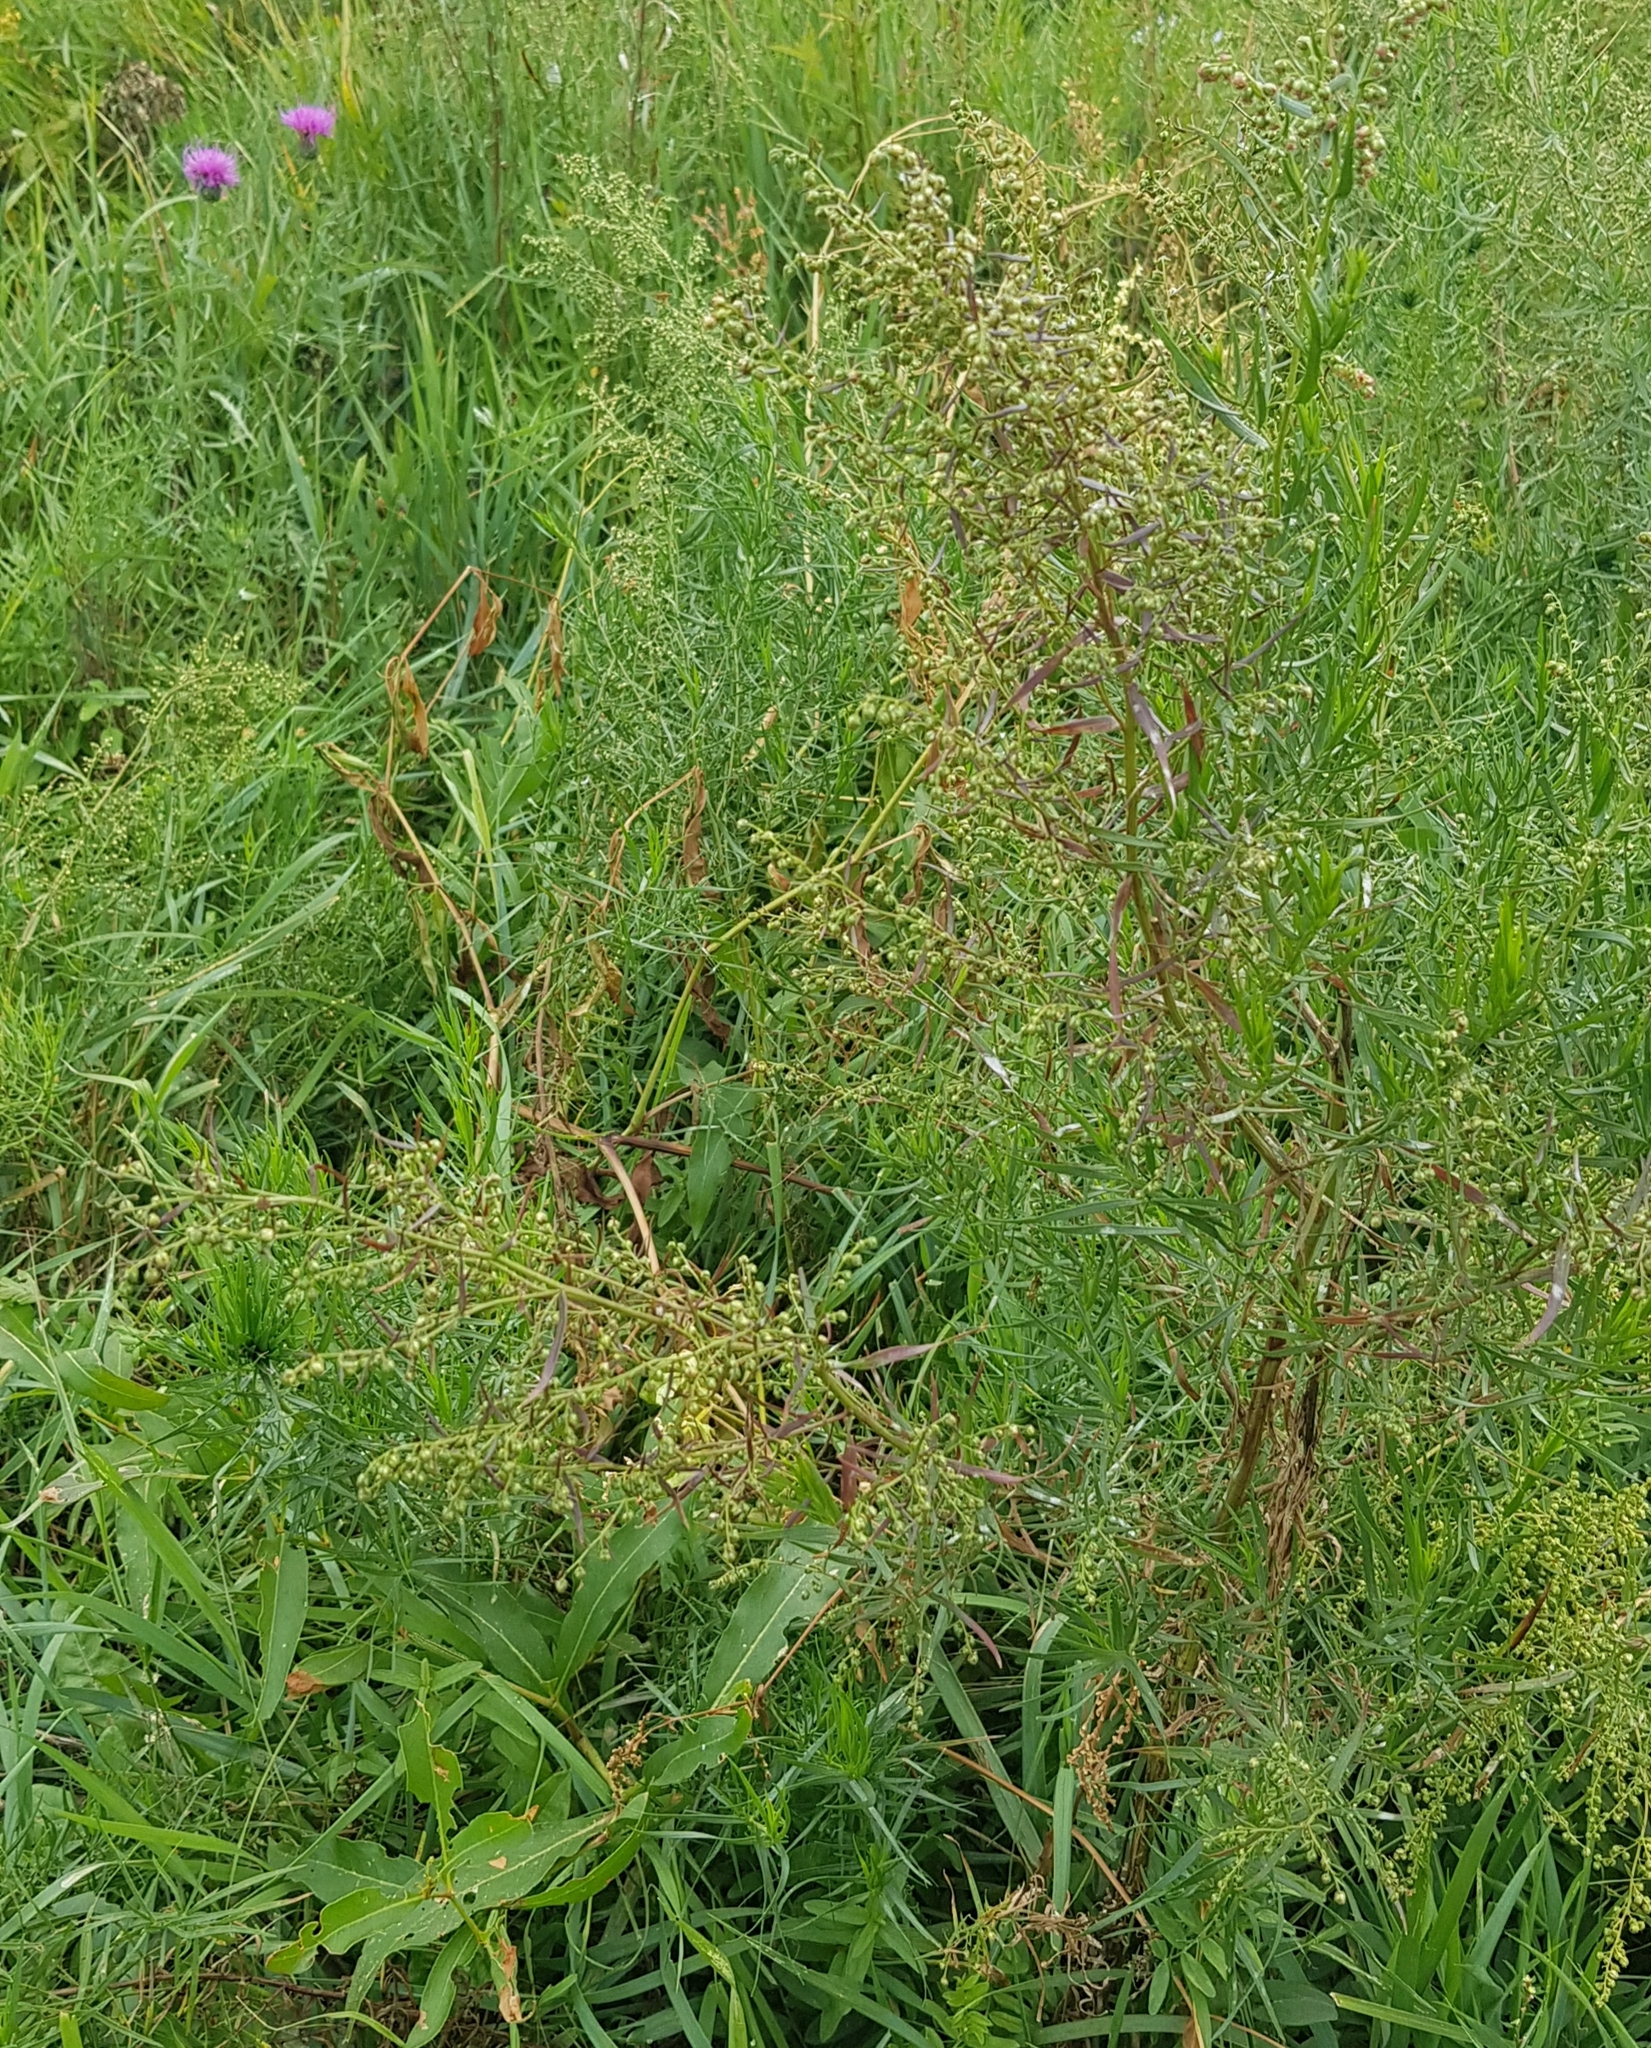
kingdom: Plantae
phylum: Tracheophyta
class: Magnoliopsida
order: Asterales
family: Asteraceae
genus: Artemisia
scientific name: Artemisia dracunculus
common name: Tarragon
